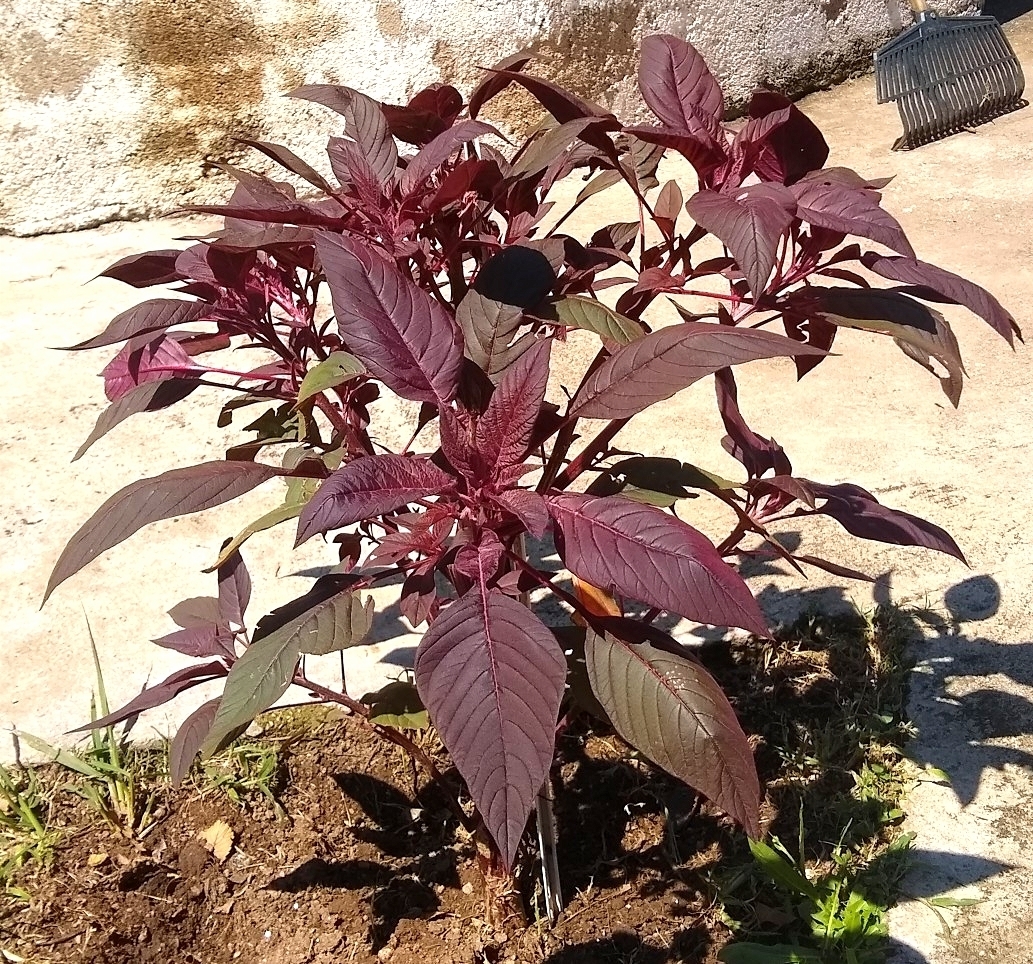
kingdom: Plantae
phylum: Tracheophyta
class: Magnoliopsida
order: Caryophyllales
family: Amaranthaceae
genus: Amaranthus
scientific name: Amaranthus cruentus
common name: Purple amaranth
